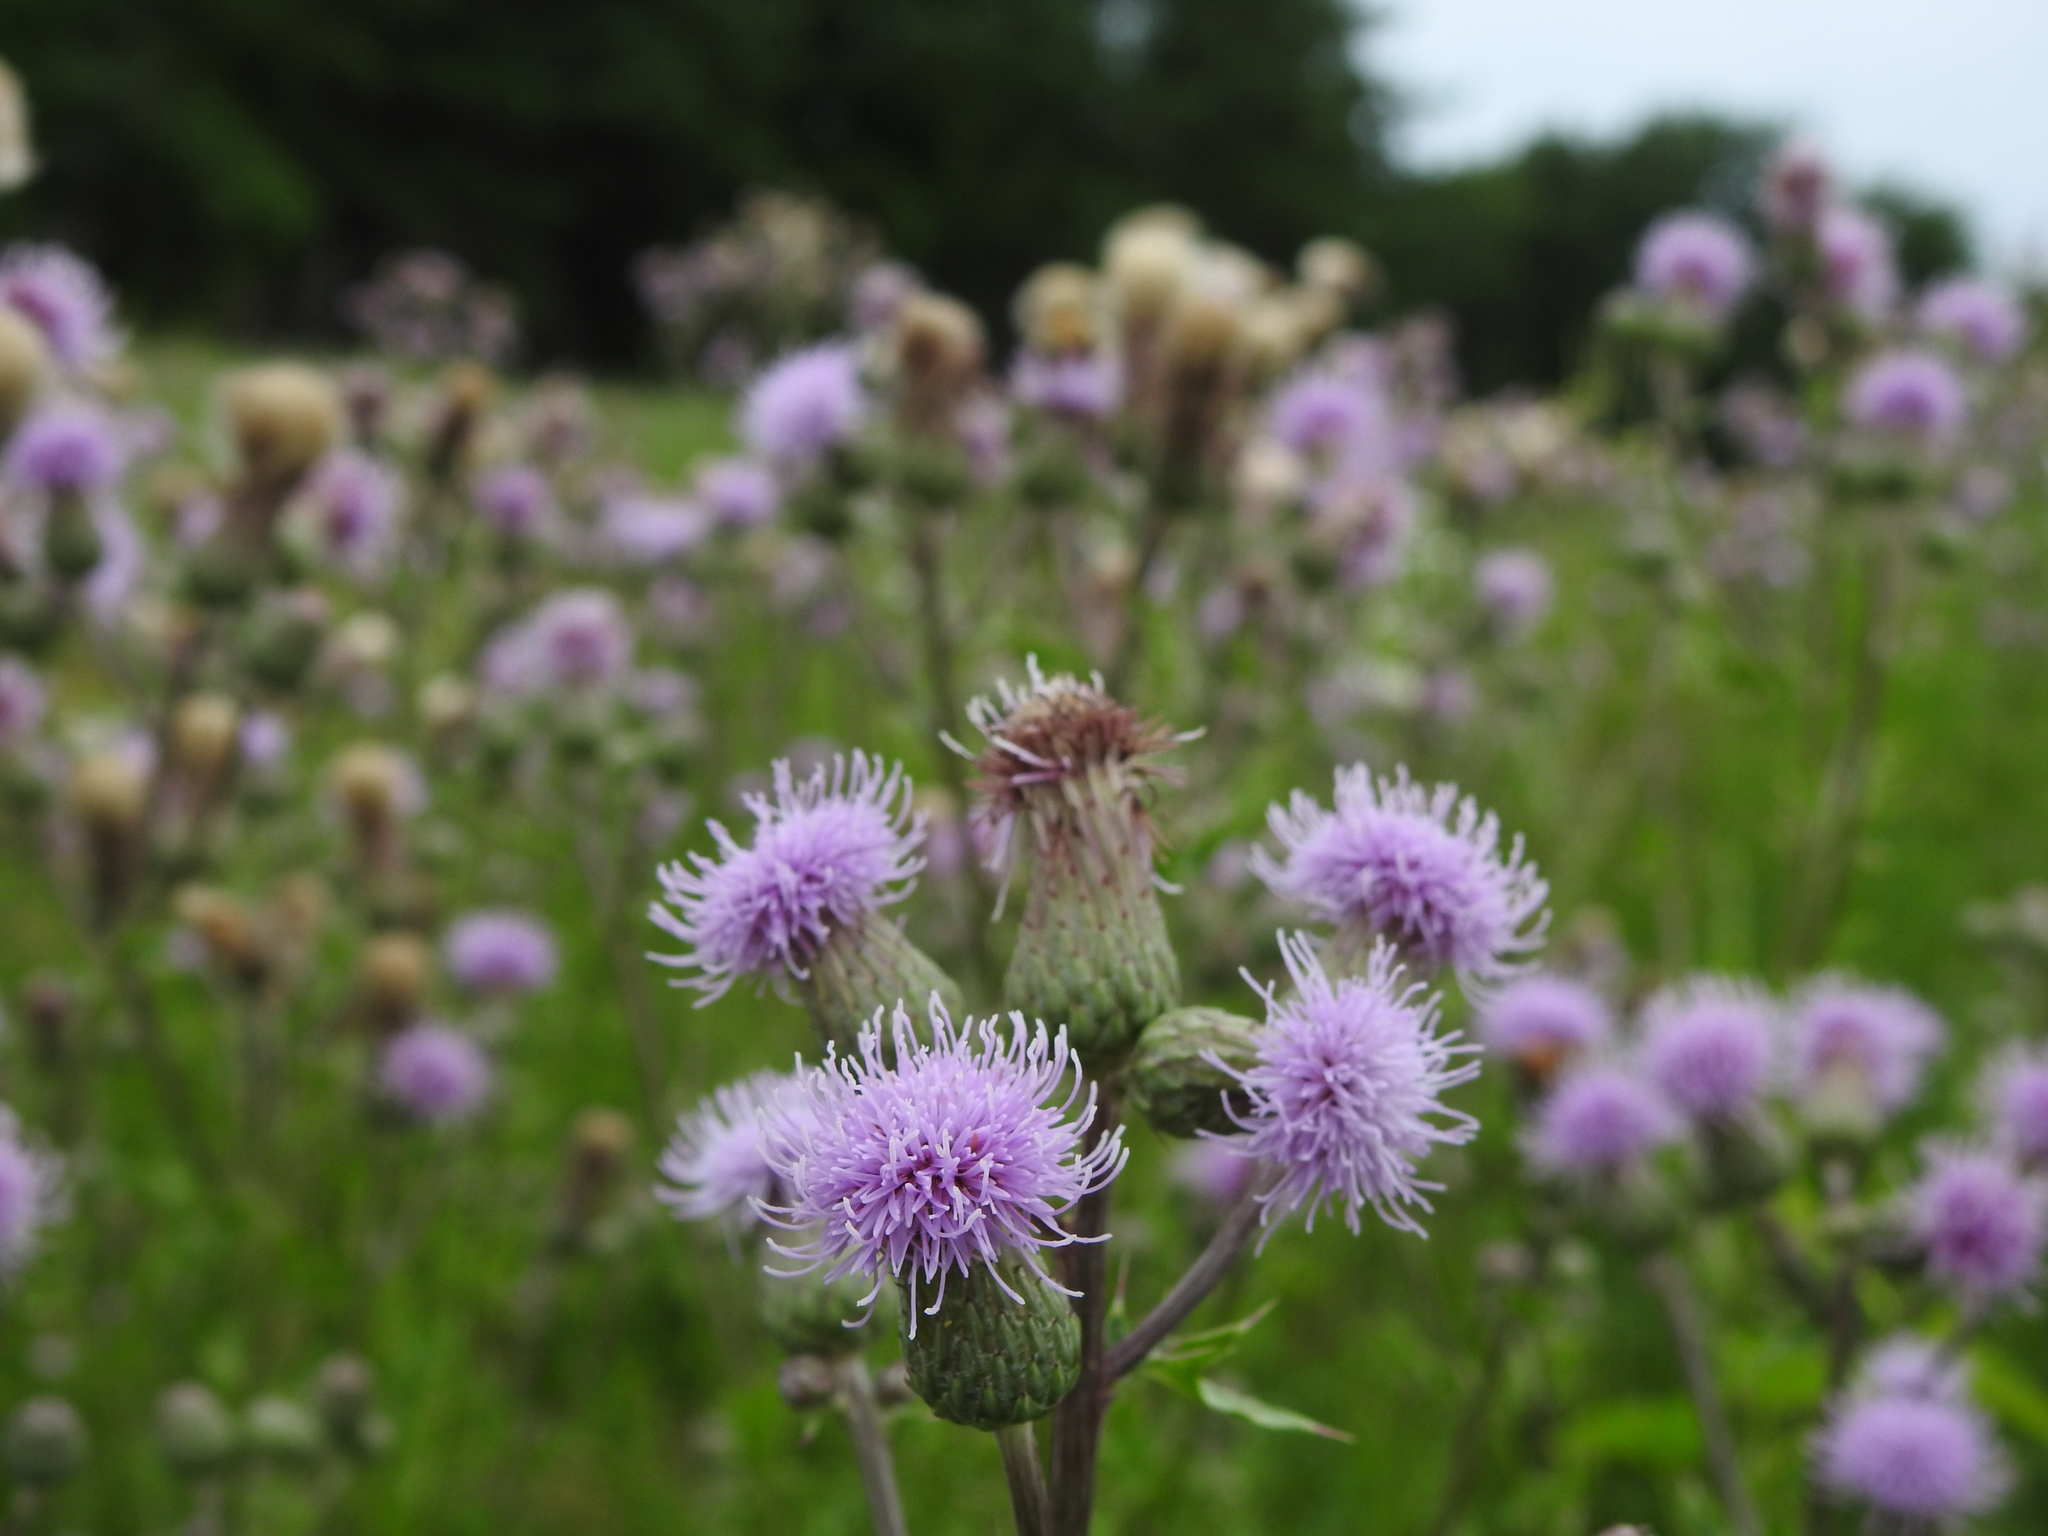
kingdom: Plantae
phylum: Tracheophyta
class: Magnoliopsida
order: Asterales
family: Asteraceae
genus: Cirsium
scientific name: Cirsium arvense
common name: Creeping thistle
